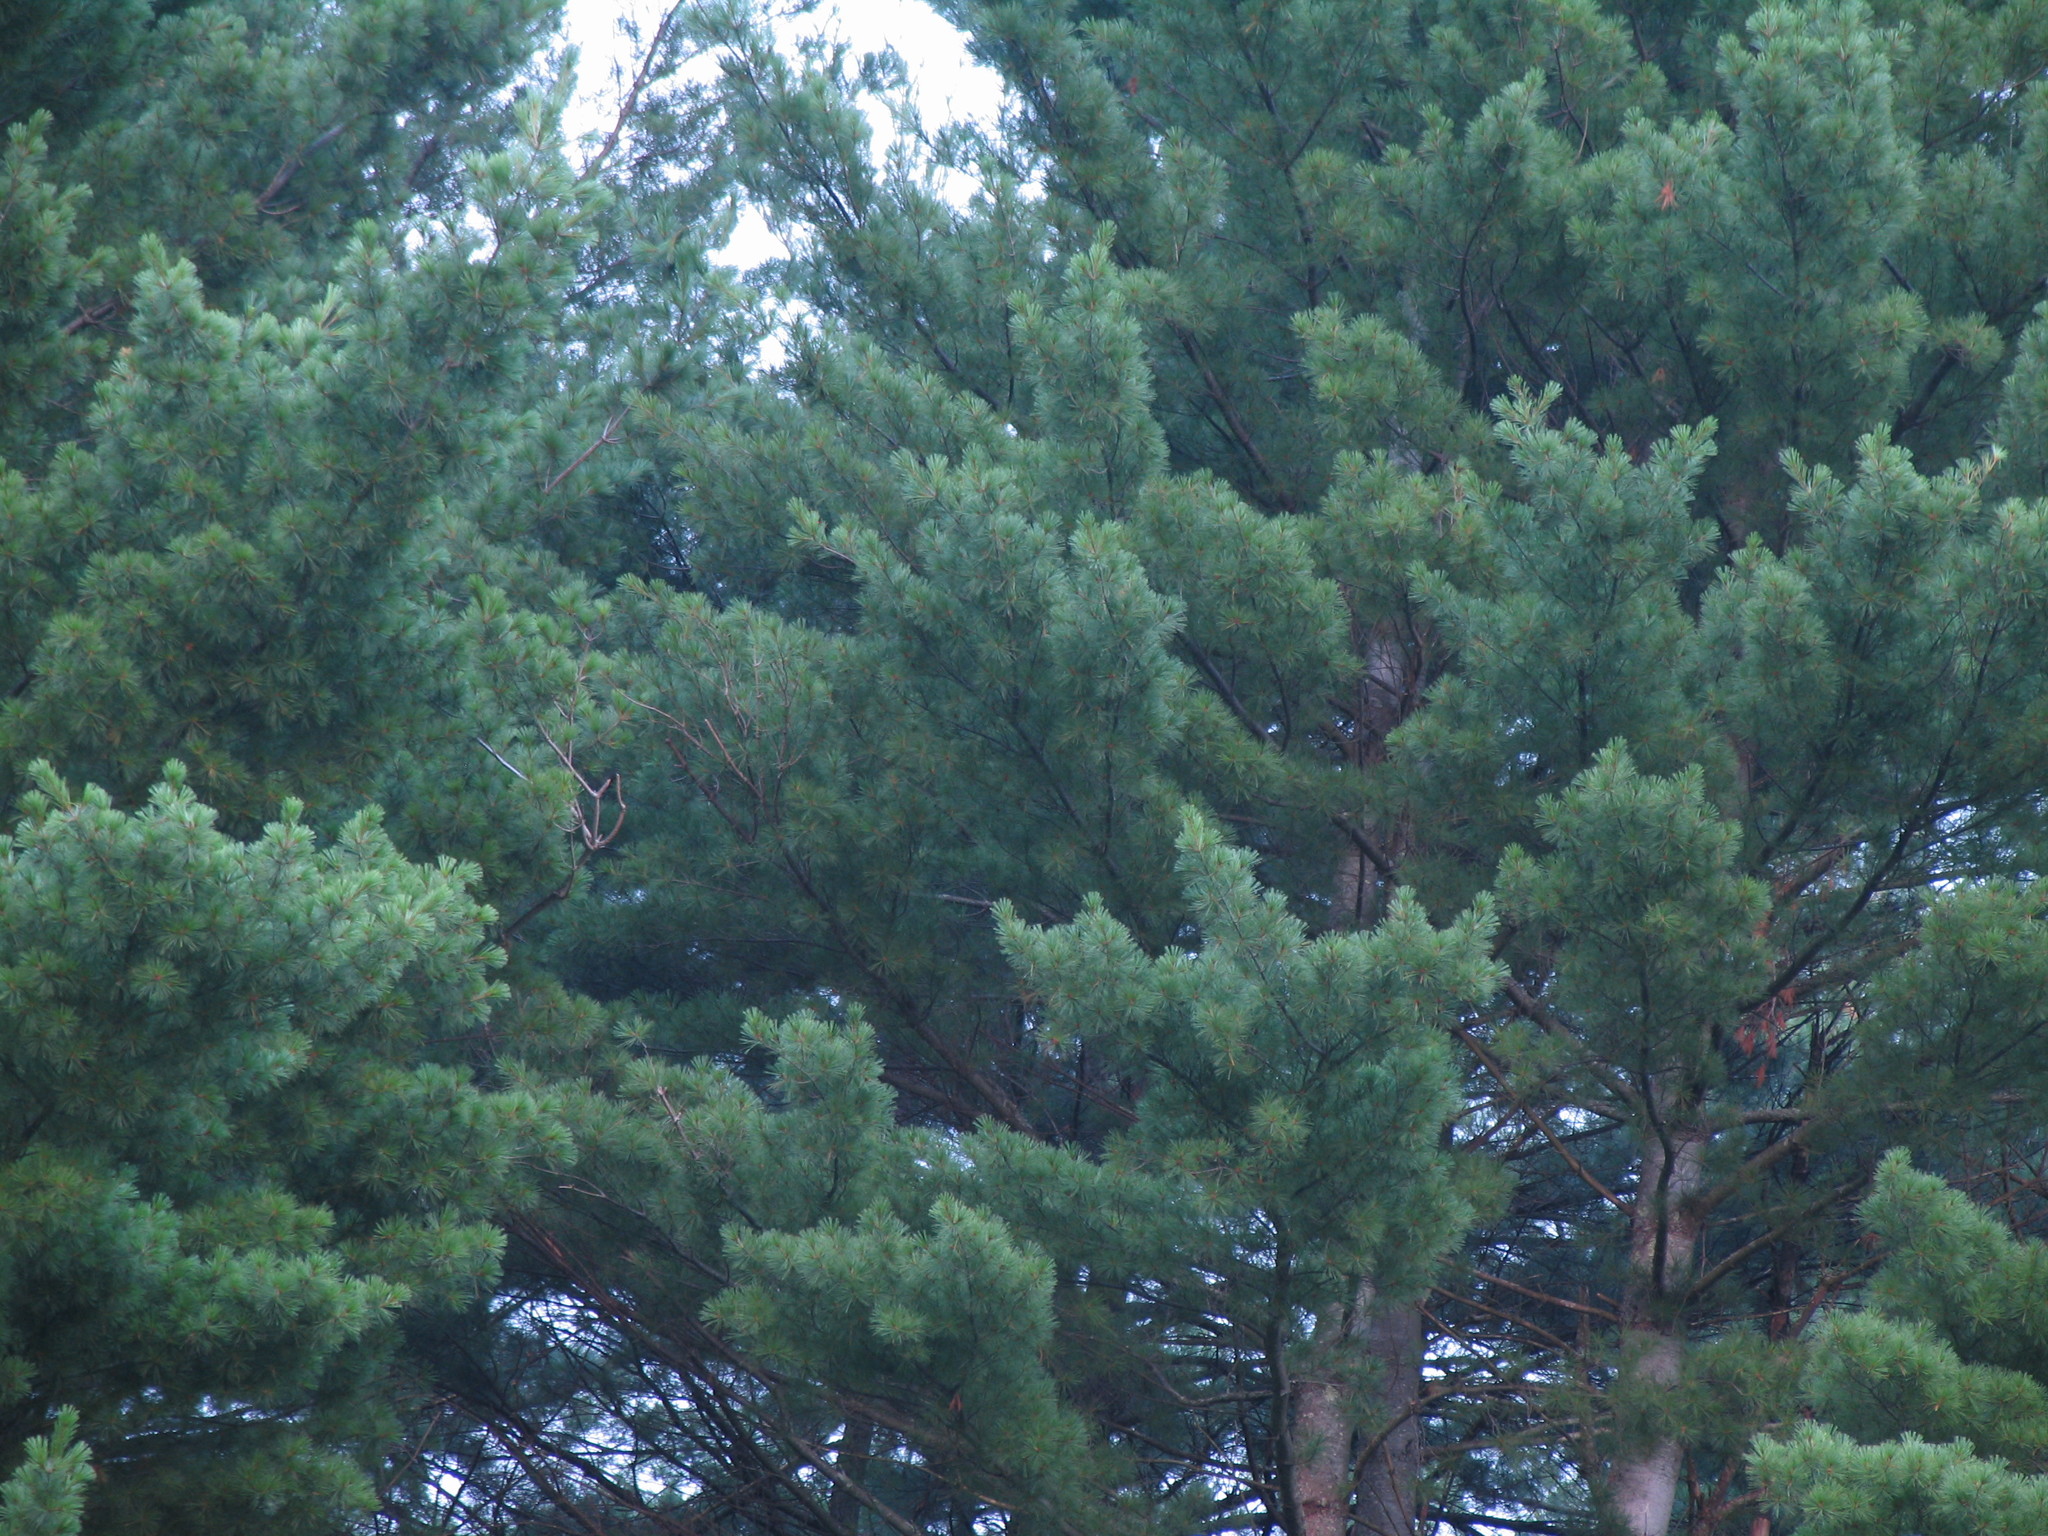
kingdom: Plantae
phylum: Tracheophyta
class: Pinopsida
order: Pinales
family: Pinaceae
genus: Pinus
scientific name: Pinus strobus
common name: Weymouth pine
